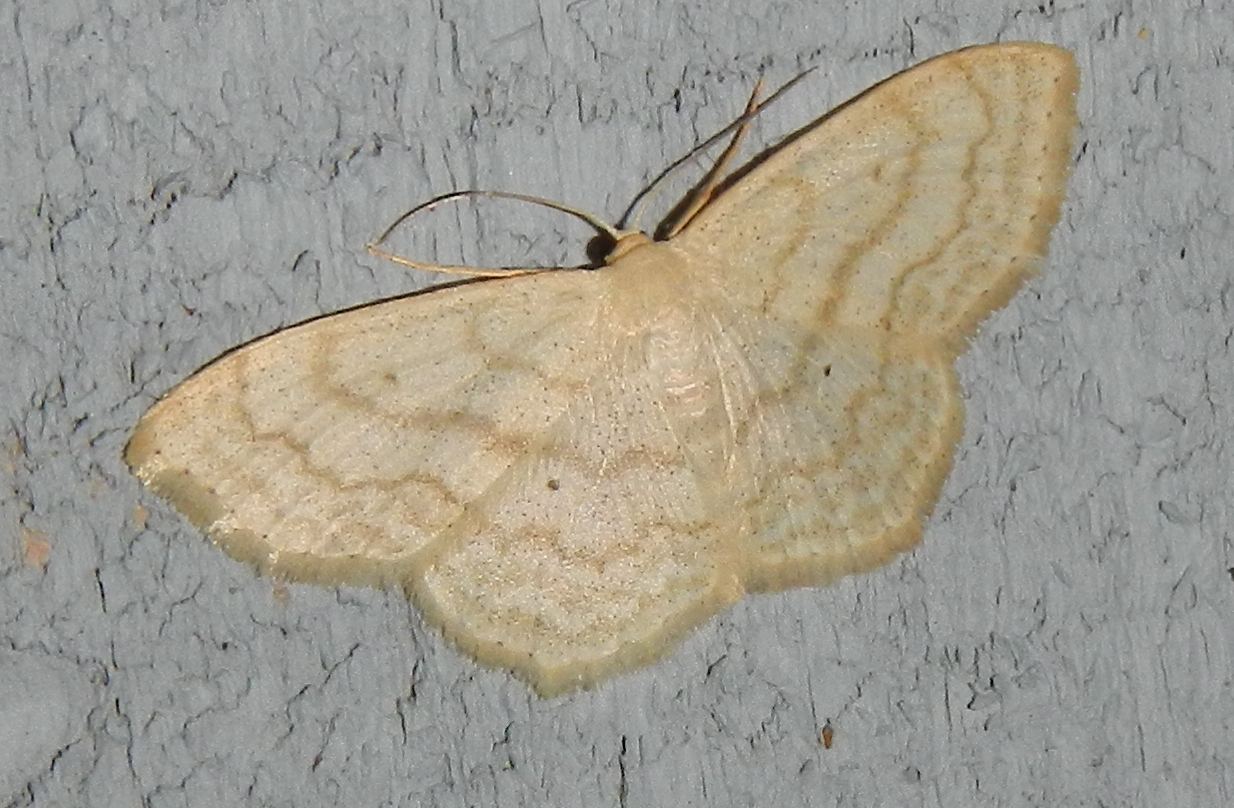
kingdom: Animalia
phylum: Arthropoda
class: Insecta
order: Lepidoptera
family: Geometridae
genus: Scopula
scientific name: Scopula limboundata
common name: Large lace border
